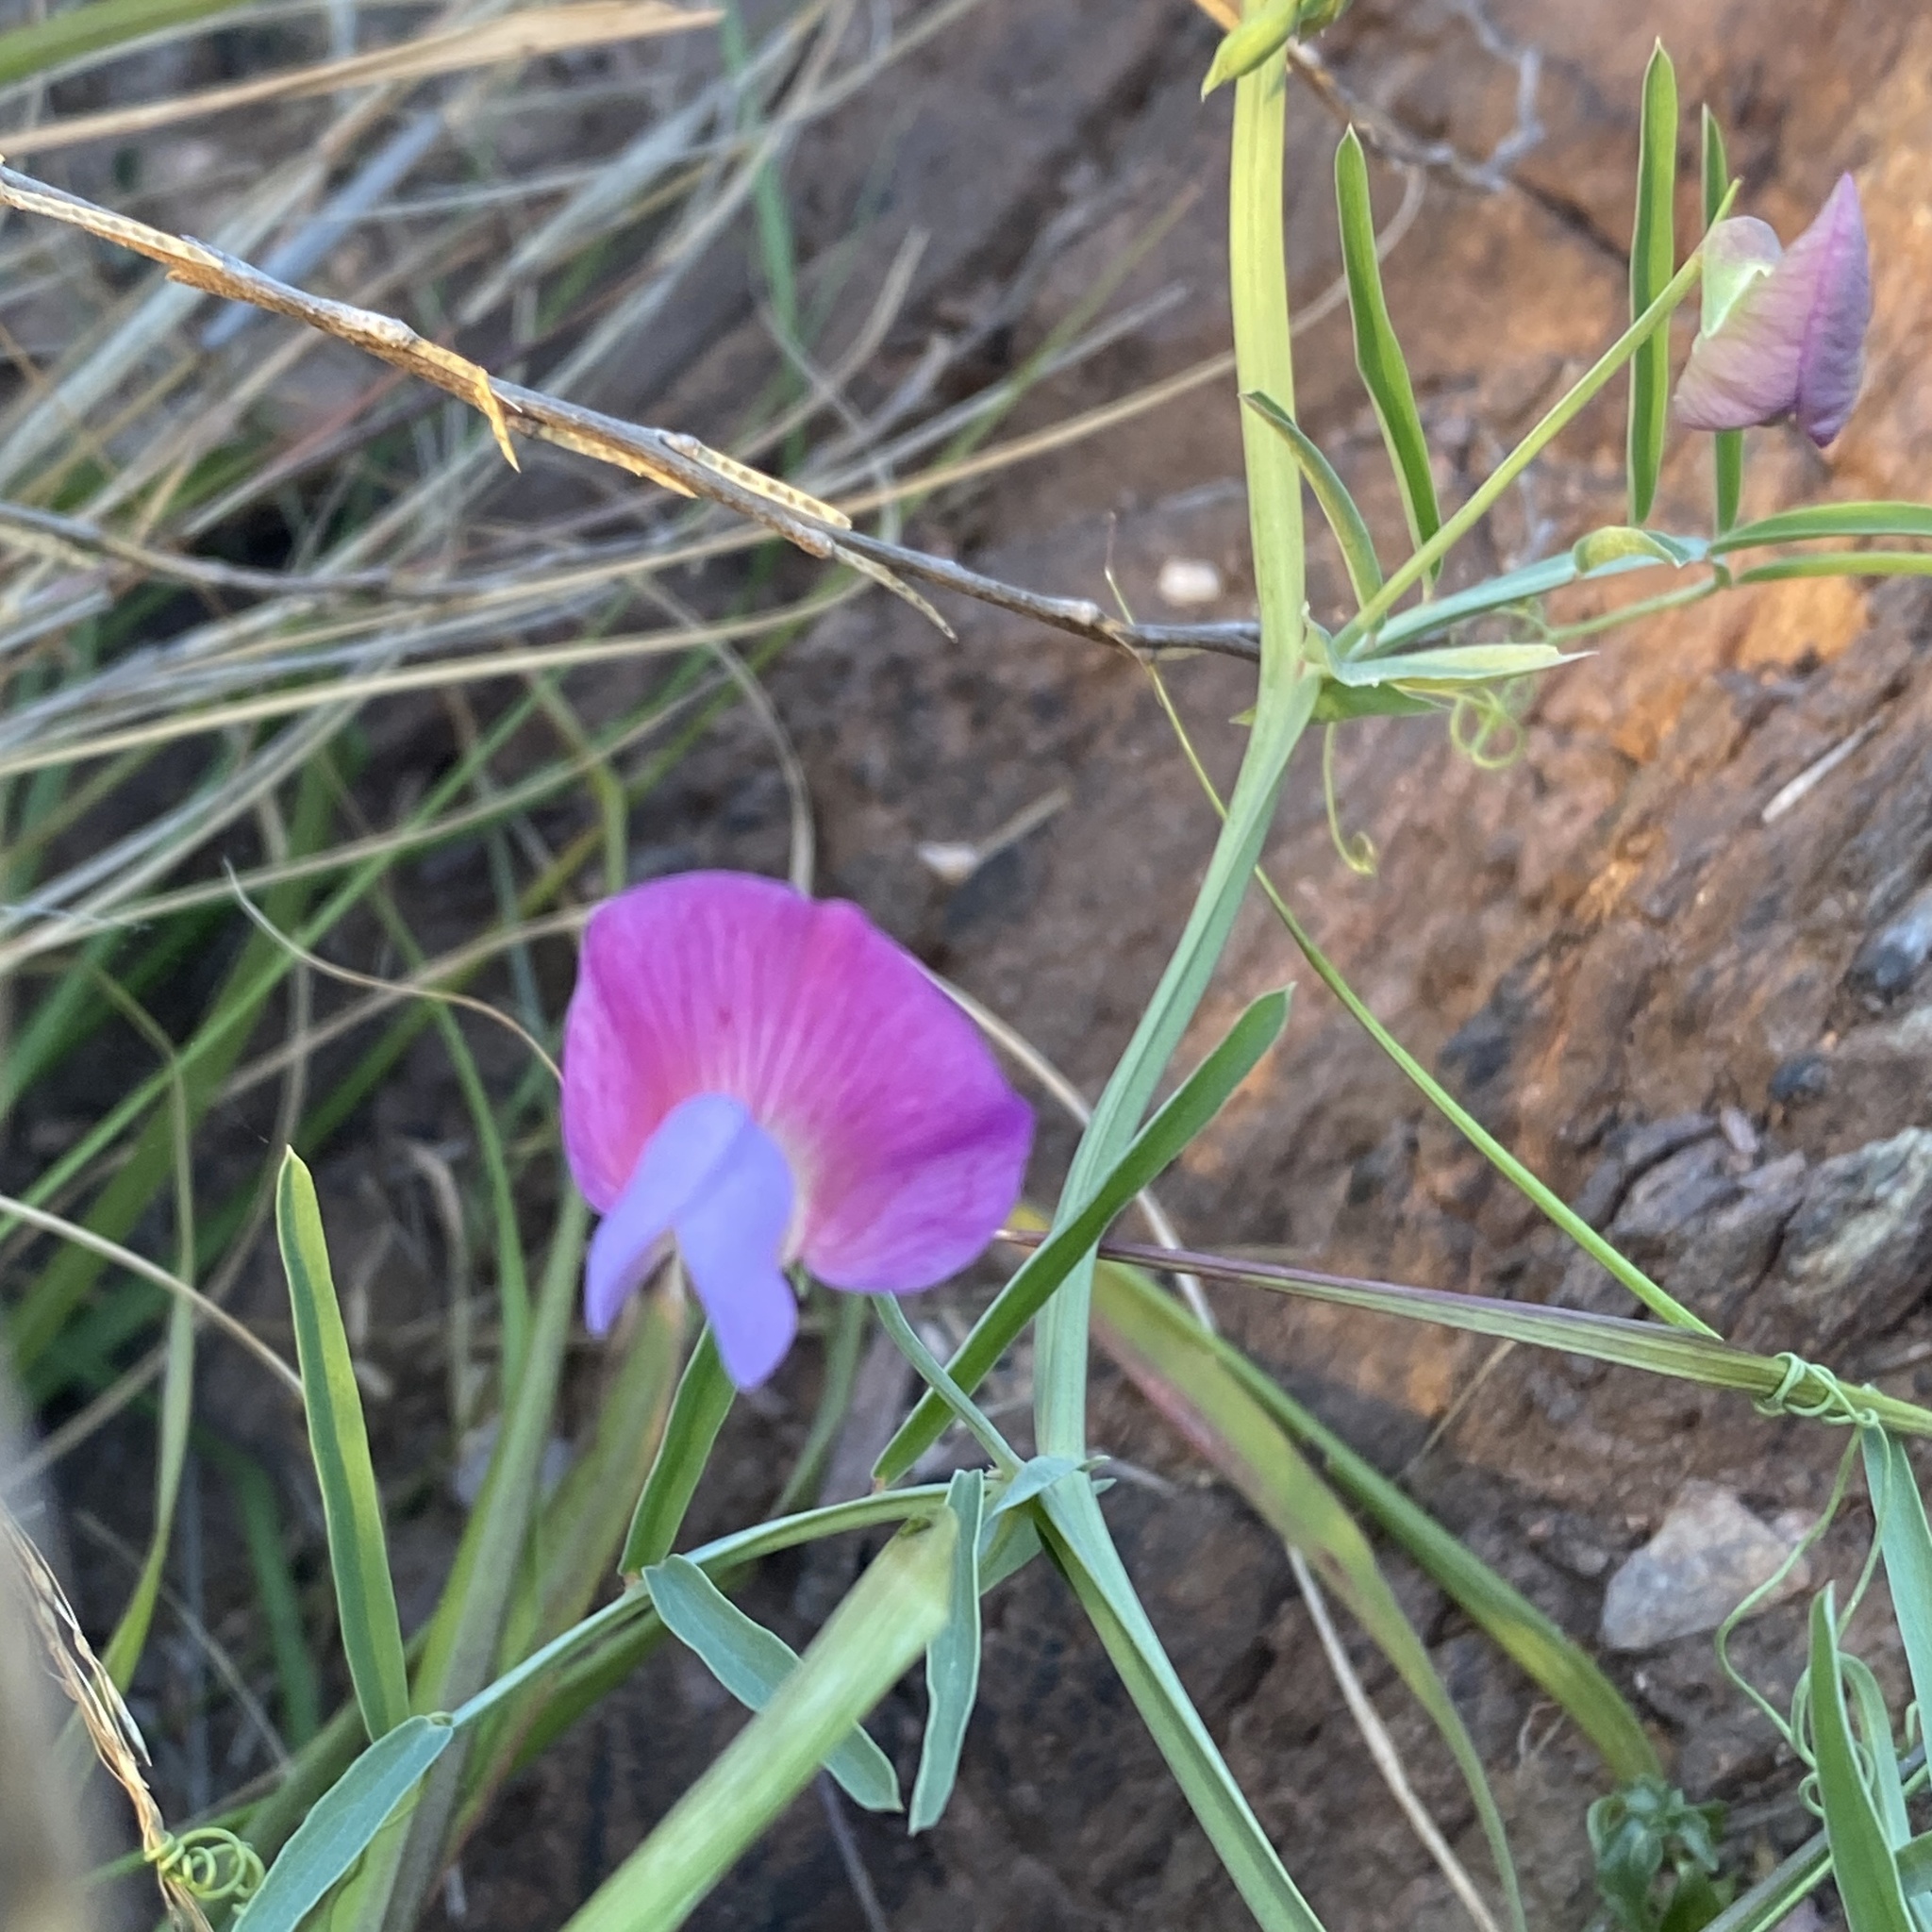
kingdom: Plantae
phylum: Tracheophyta
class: Magnoliopsida
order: Fabales
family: Fabaceae
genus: Lathyrus
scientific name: Lathyrus clymenum
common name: Spanish vetchling
